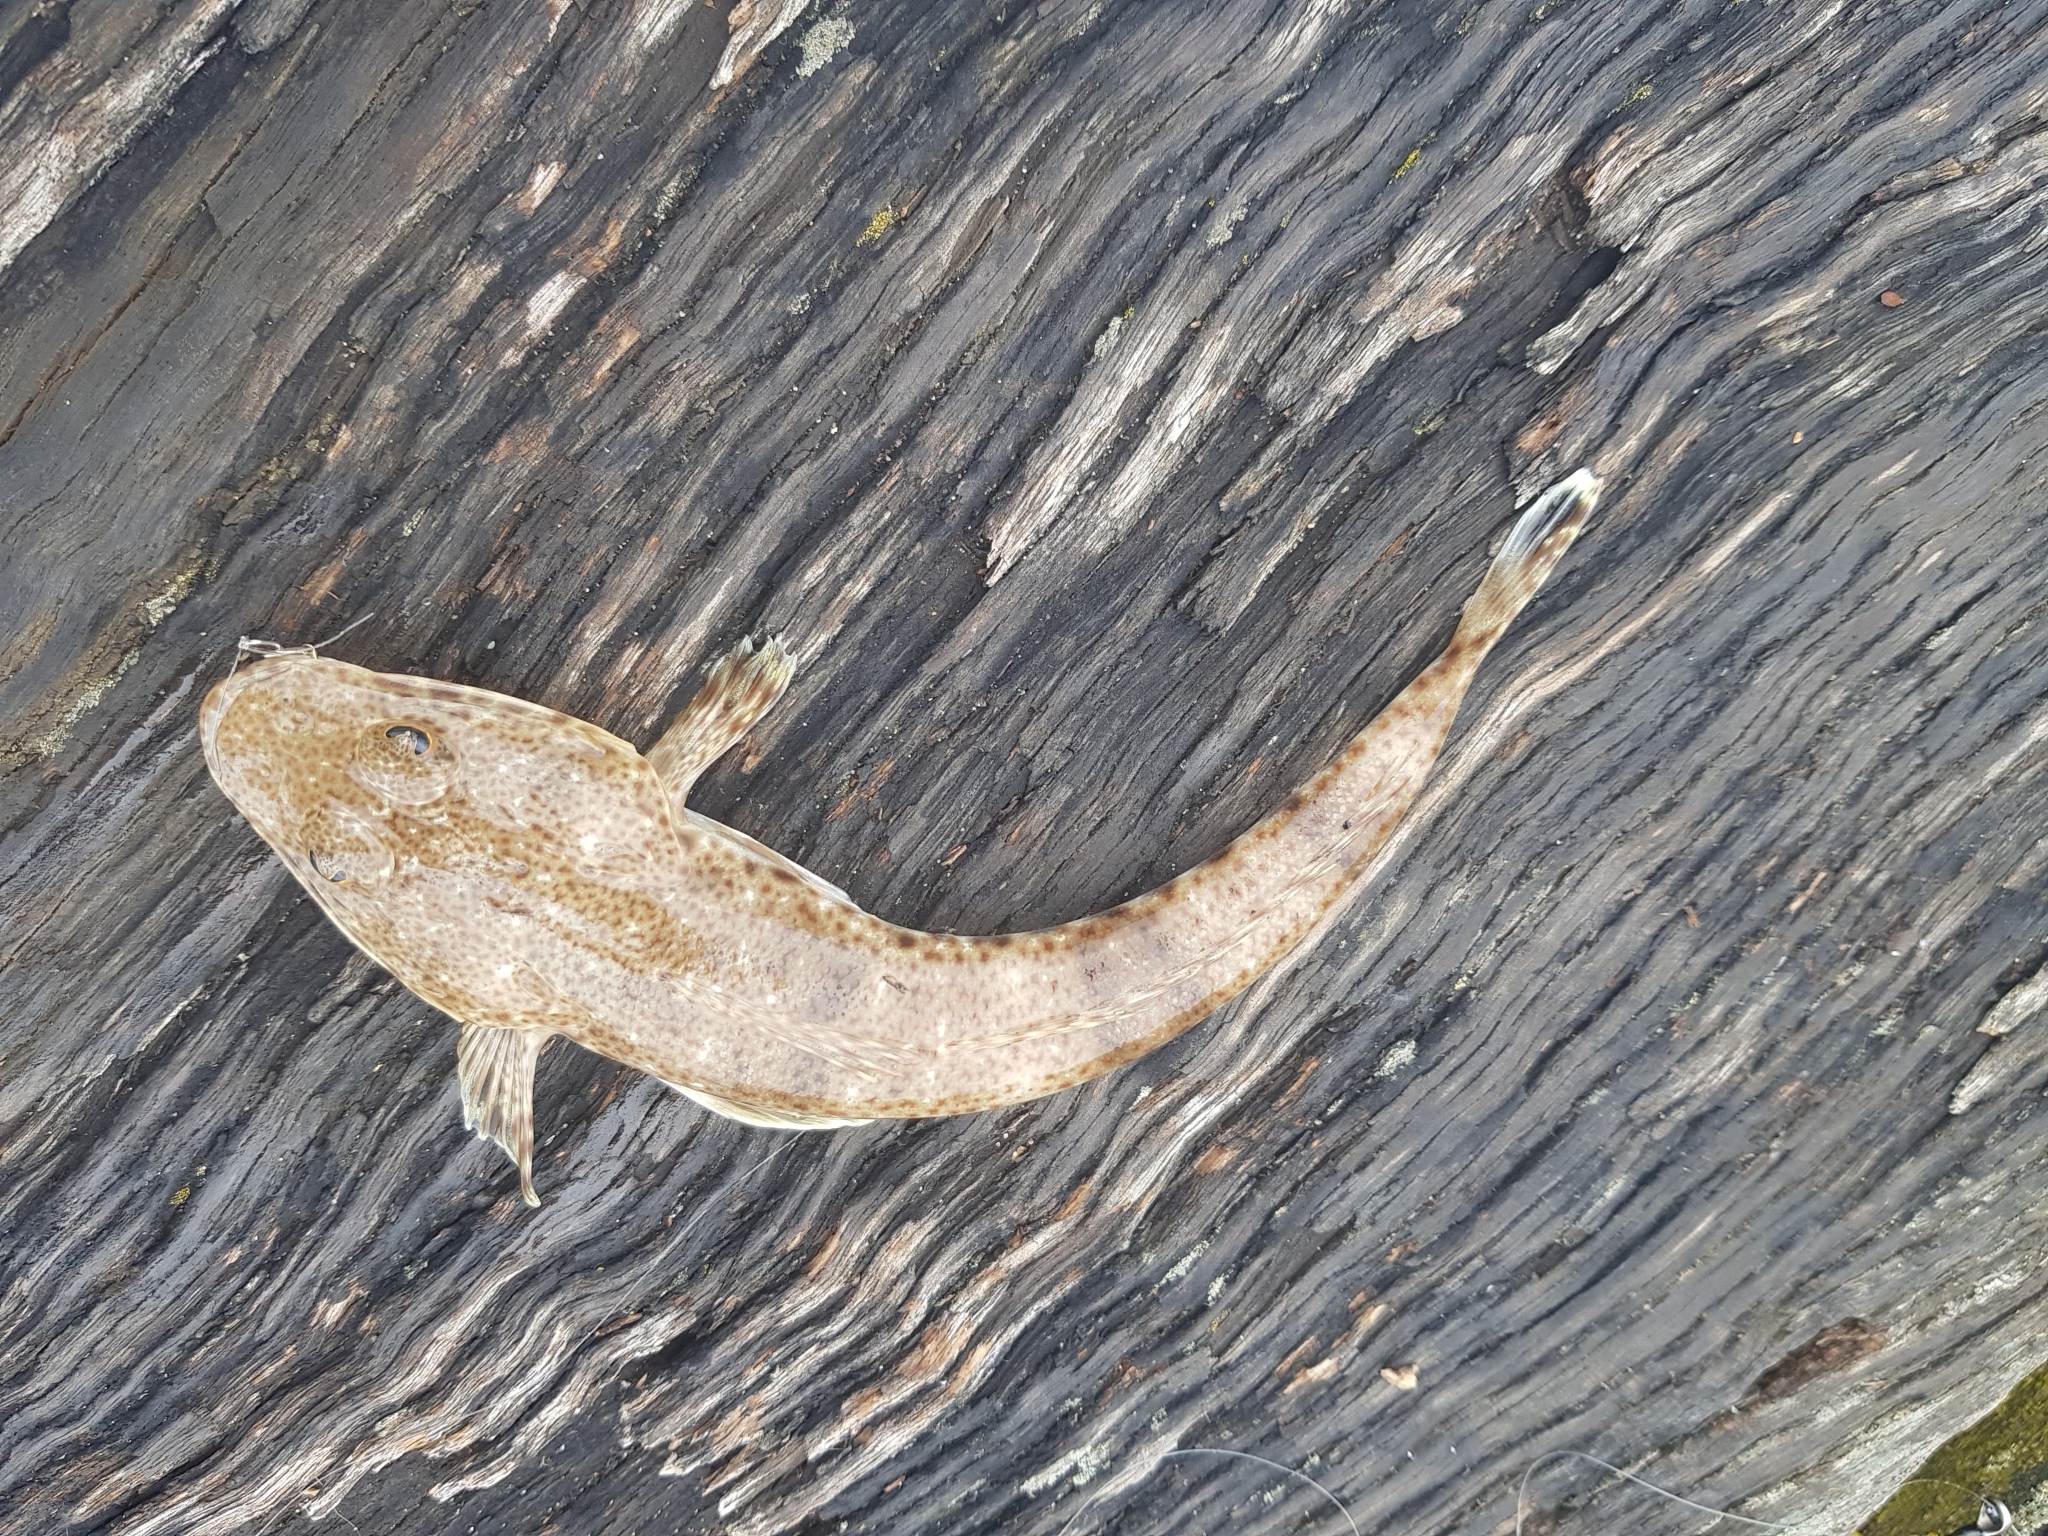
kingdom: Animalia
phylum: Chordata
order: Scorpaeniformes
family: Platycephalidae
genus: Platycephalus
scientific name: Platycephalus bassensis
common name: Sand flathead
